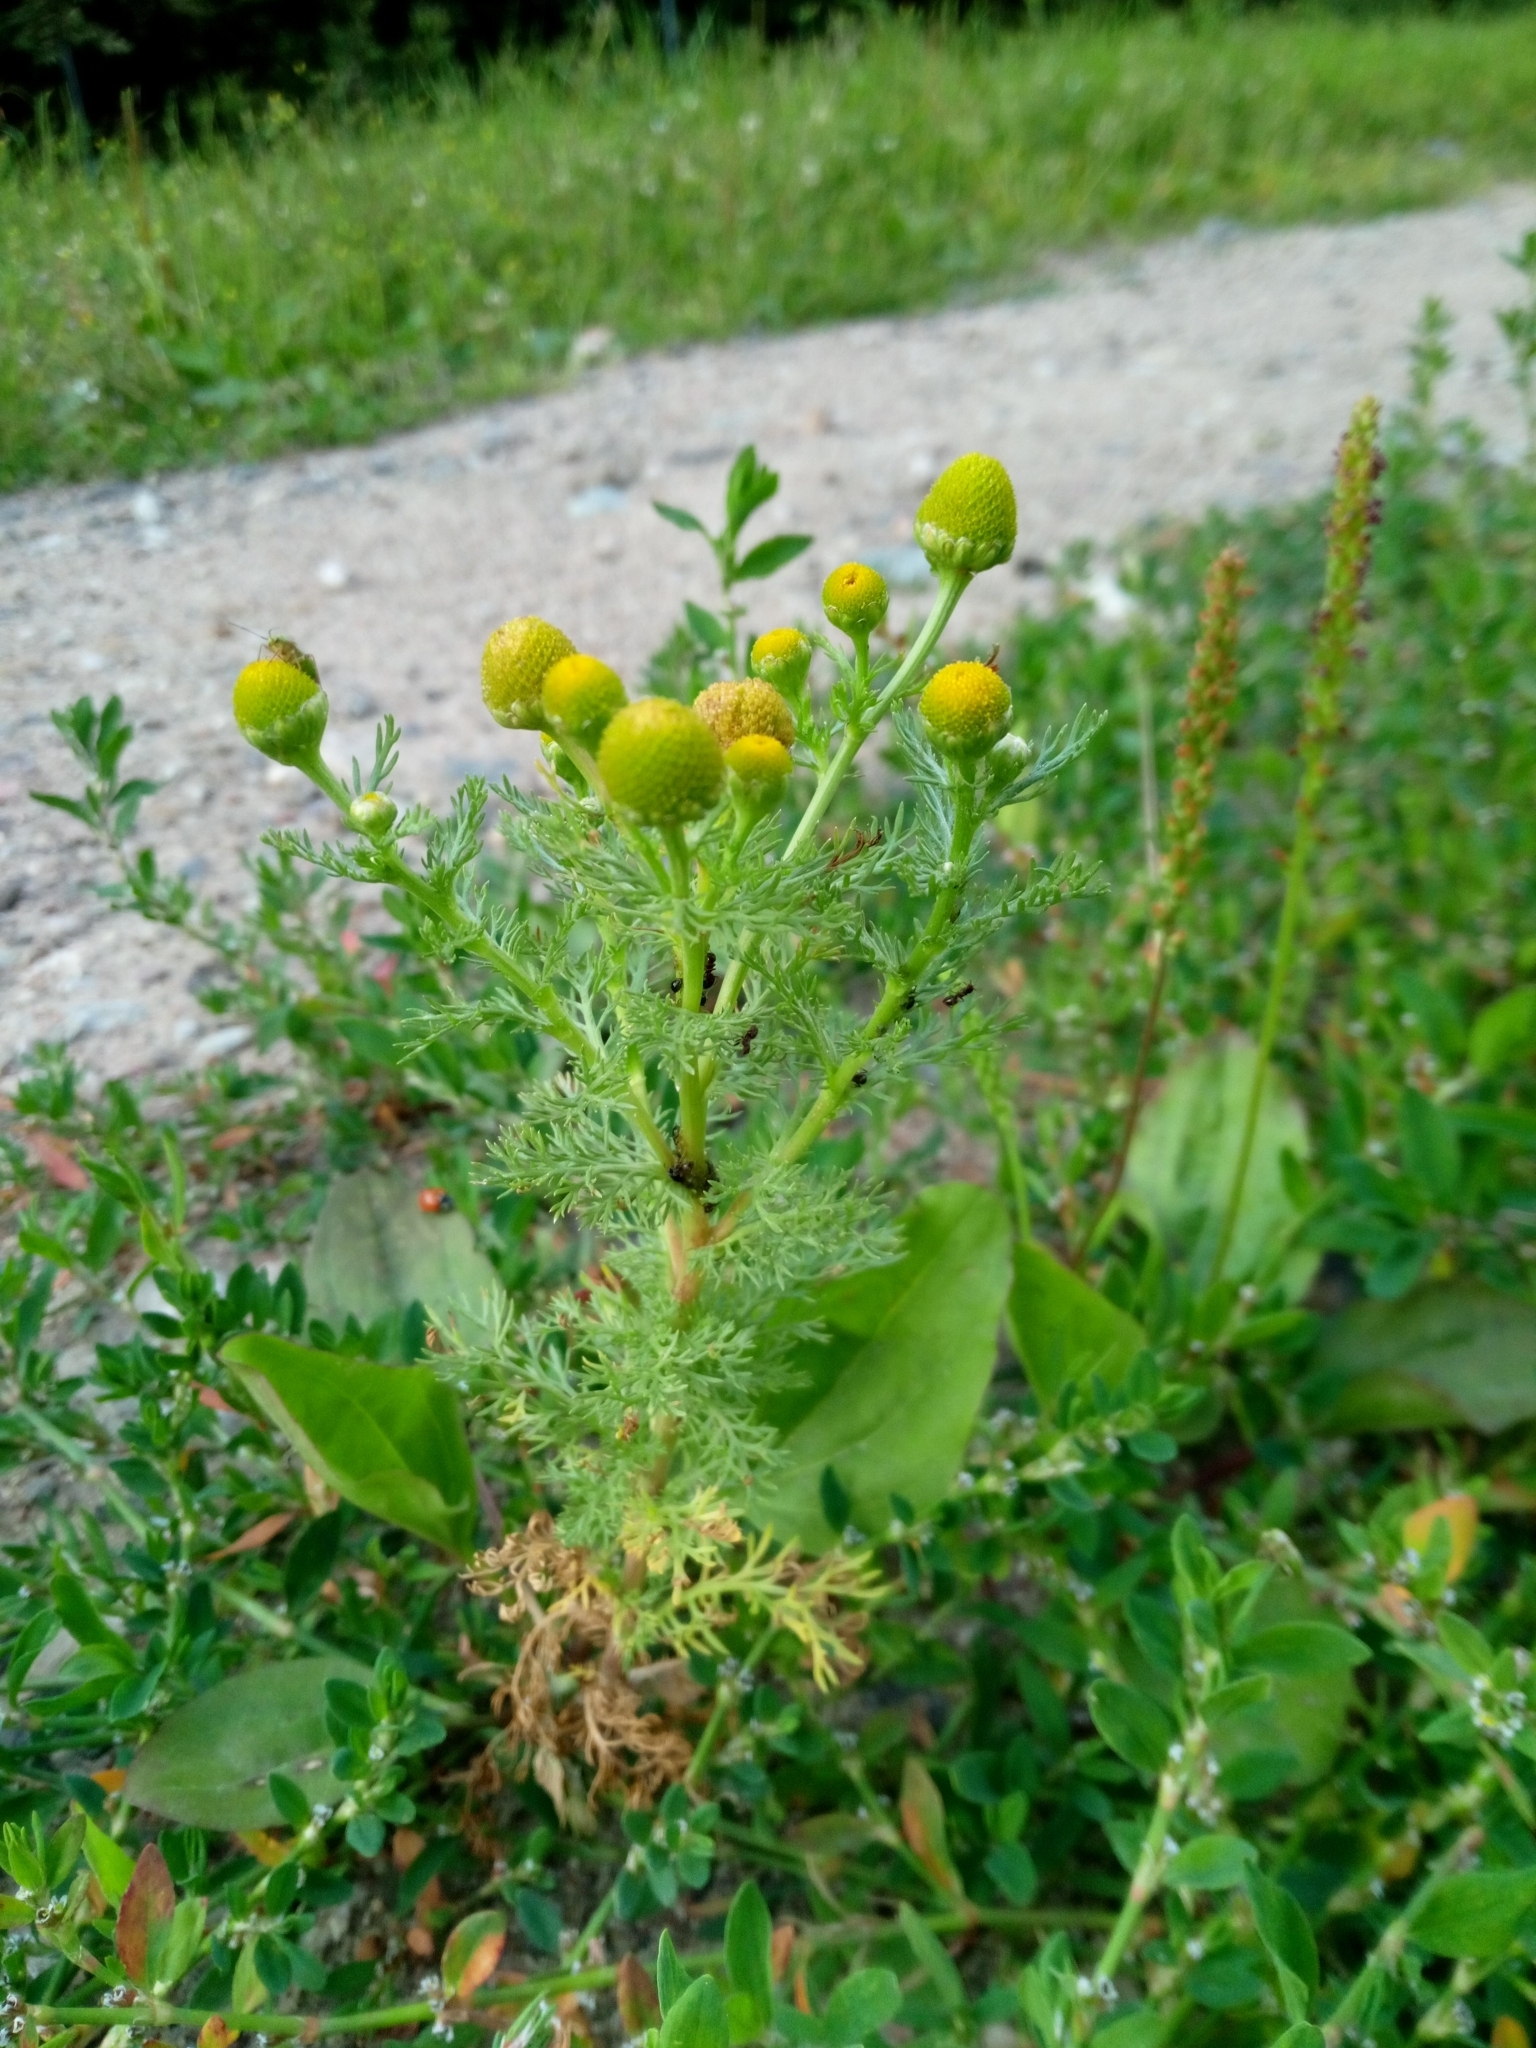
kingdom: Plantae
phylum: Tracheophyta
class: Magnoliopsida
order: Asterales
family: Asteraceae
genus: Matricaria
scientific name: Matricaria discoidea
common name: Disc mayweed
